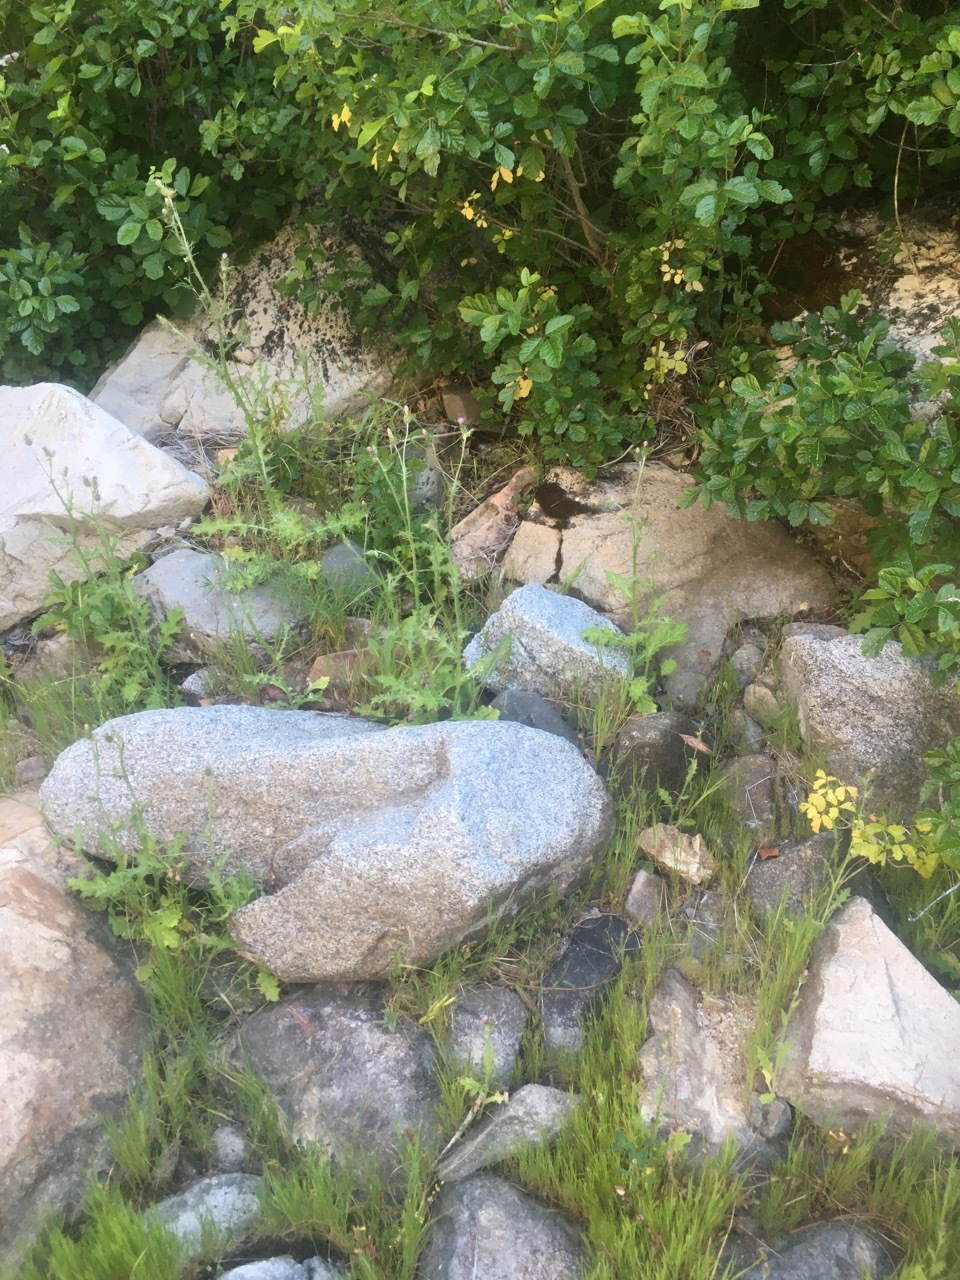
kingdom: Plantae
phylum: Tracheophyta
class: Magnoliopsida
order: Asterales
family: Asteraceae
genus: Carduus
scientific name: Carduus pycnocephalus
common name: Plymouth thistle
